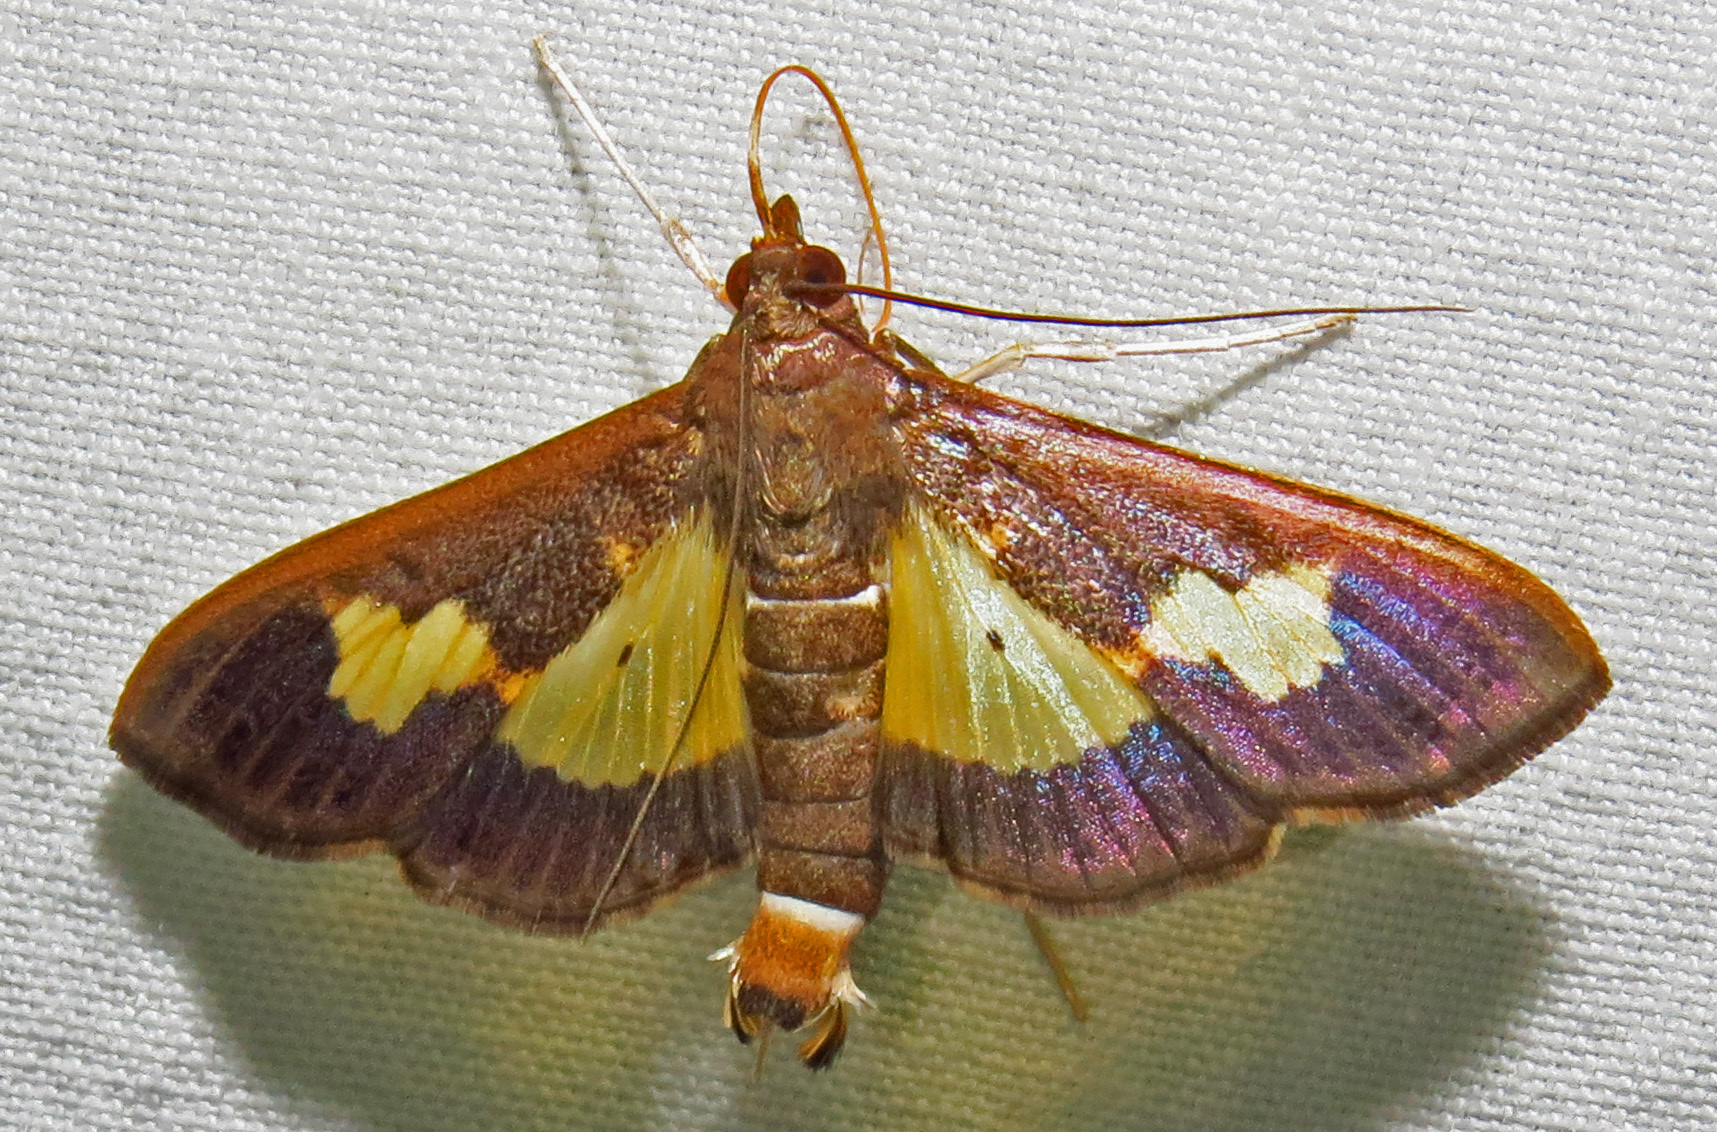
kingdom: Animalia
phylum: Arthropoda
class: Insecta
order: Lepidoptera
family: Crambidae
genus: Cryptographis
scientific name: Cryptographis nitidalis
